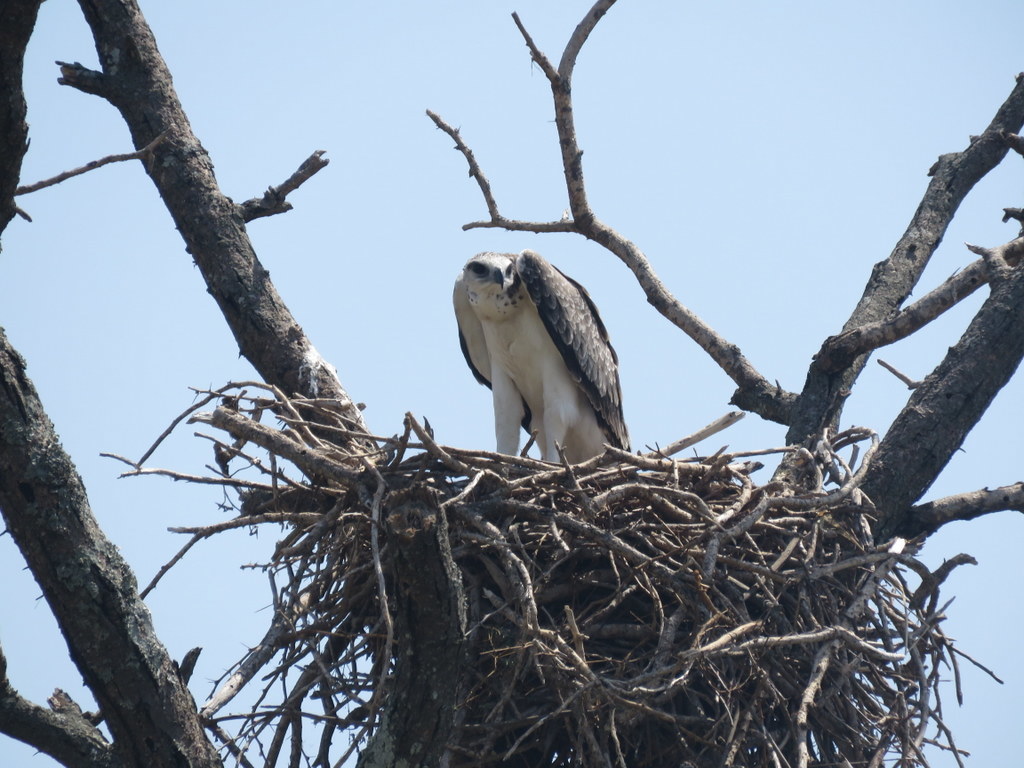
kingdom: Animalia
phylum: Chordata
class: Aves
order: Accipitriformes
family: Accipitridae
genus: Polemaetus
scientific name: Polemaetus bellicosus
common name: Martial eagle
